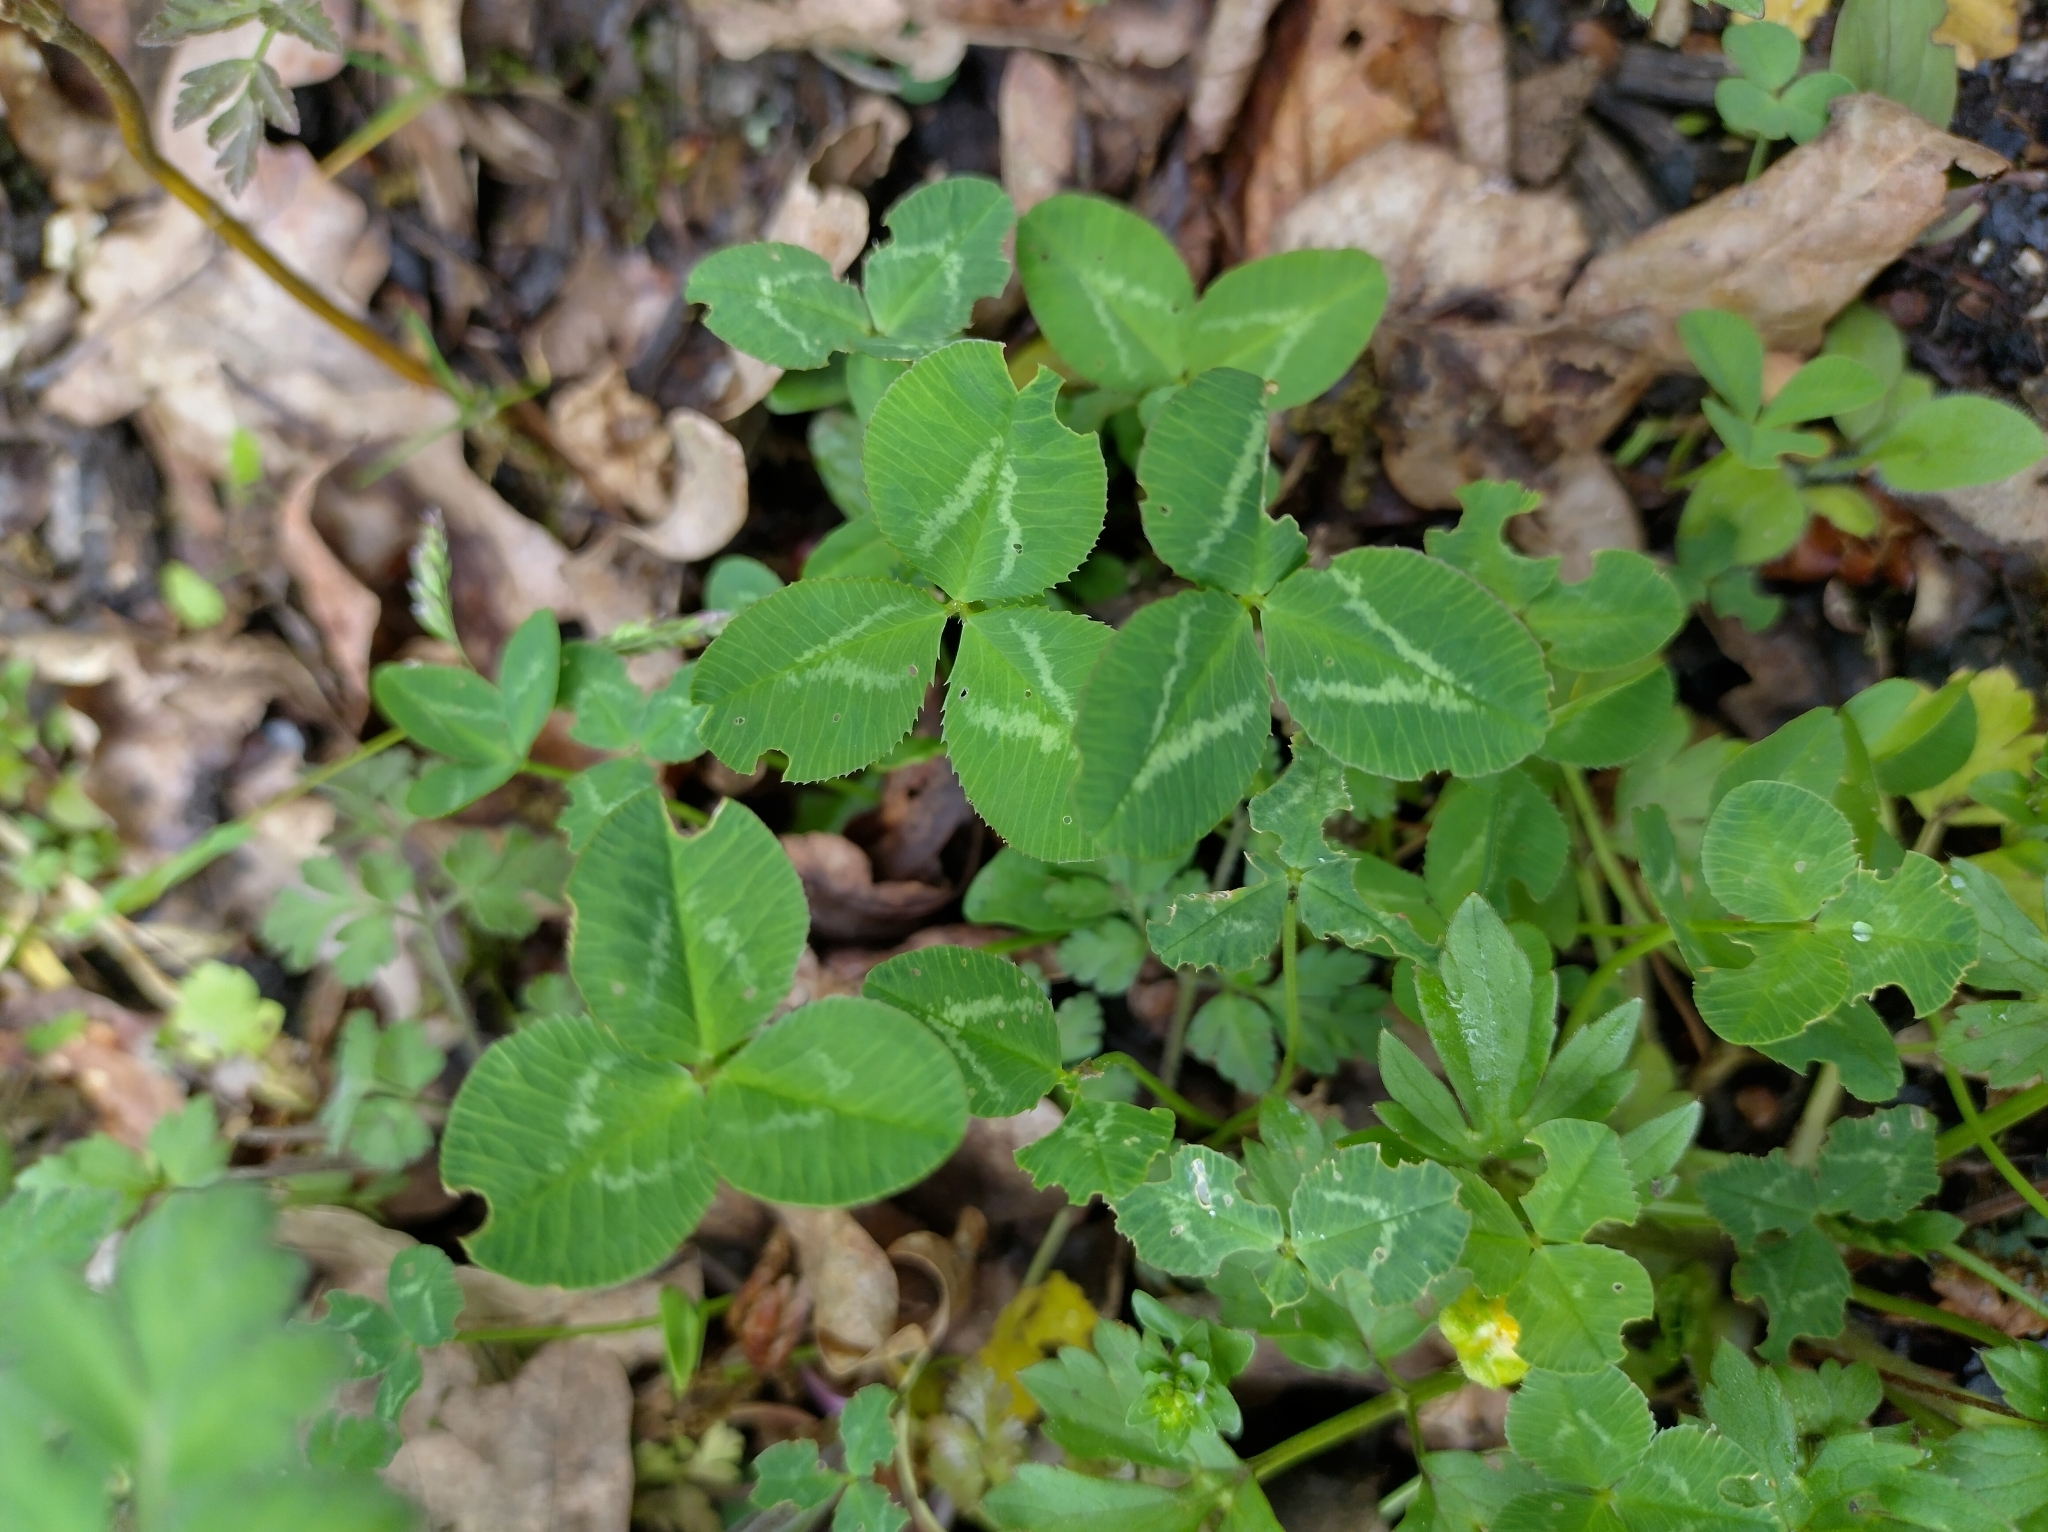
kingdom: Plantae
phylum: Tracheophyta
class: Magnoliopsida
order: Fabales
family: Fabaceae
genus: Trifolium
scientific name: Trifolium repens
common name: White clover
